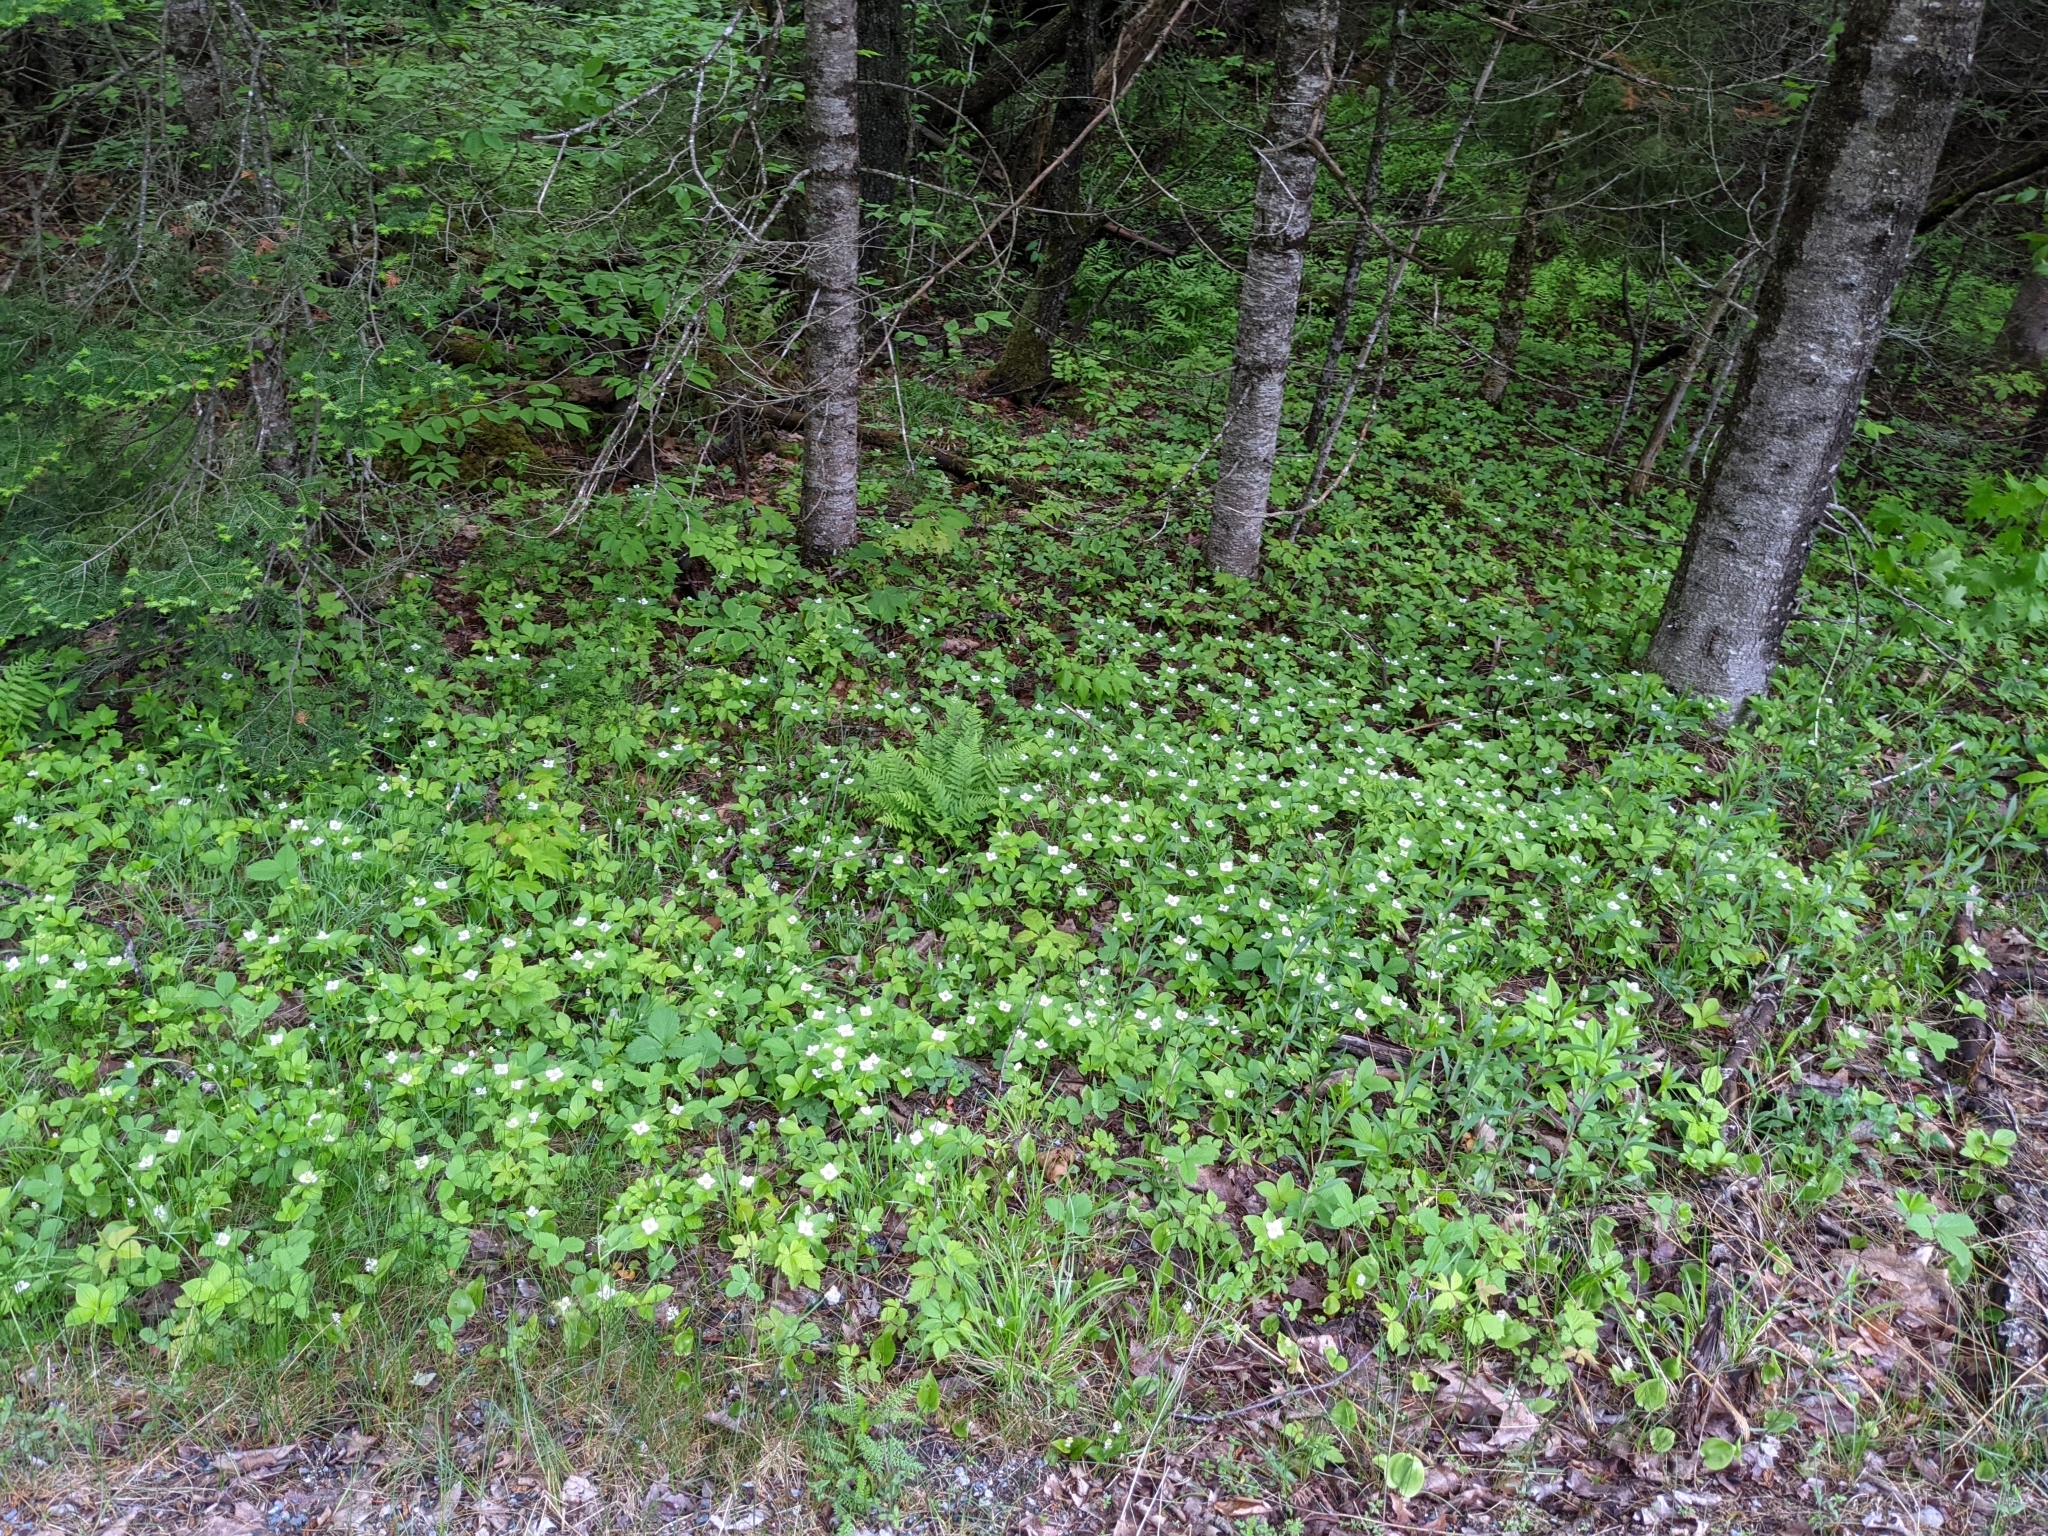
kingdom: Plantae
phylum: Tracheophyta
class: Magnoliopsida
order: Cornales
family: Cornaceae
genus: Cornus
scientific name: Cornus canadensis
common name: Creeping dogwood
